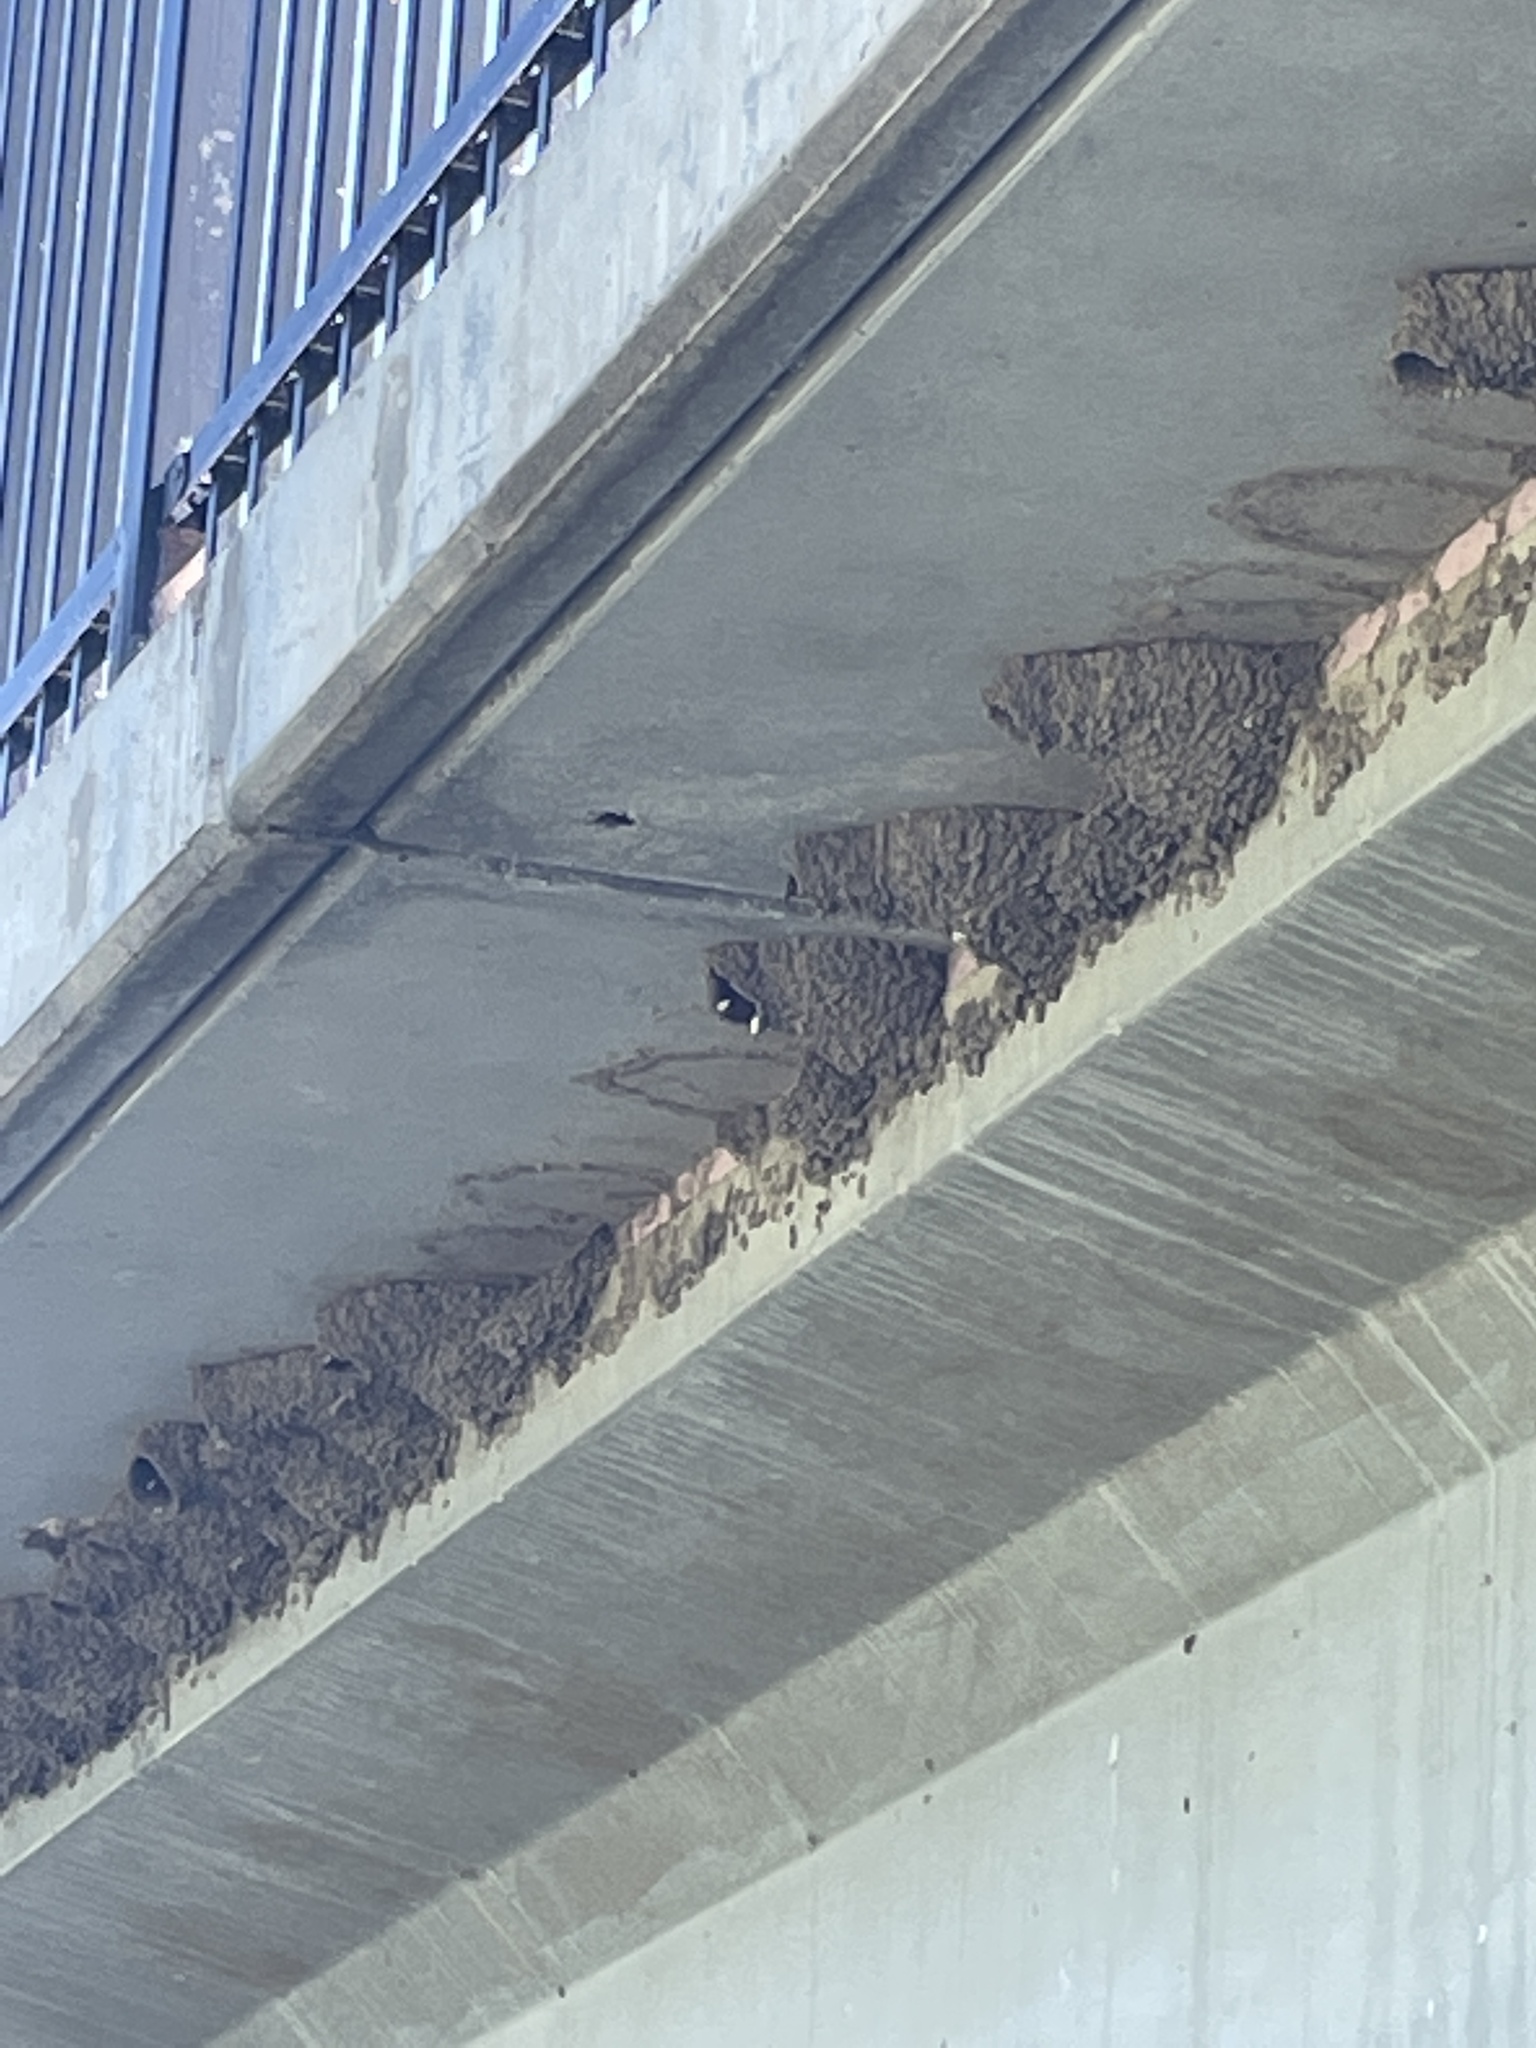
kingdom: Animalia
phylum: Chordata
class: Aves
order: Passeriformes
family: Hirundinidae
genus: Petrochelidon
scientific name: Petrochelidon pyrrhonota
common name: American cliff swallow
